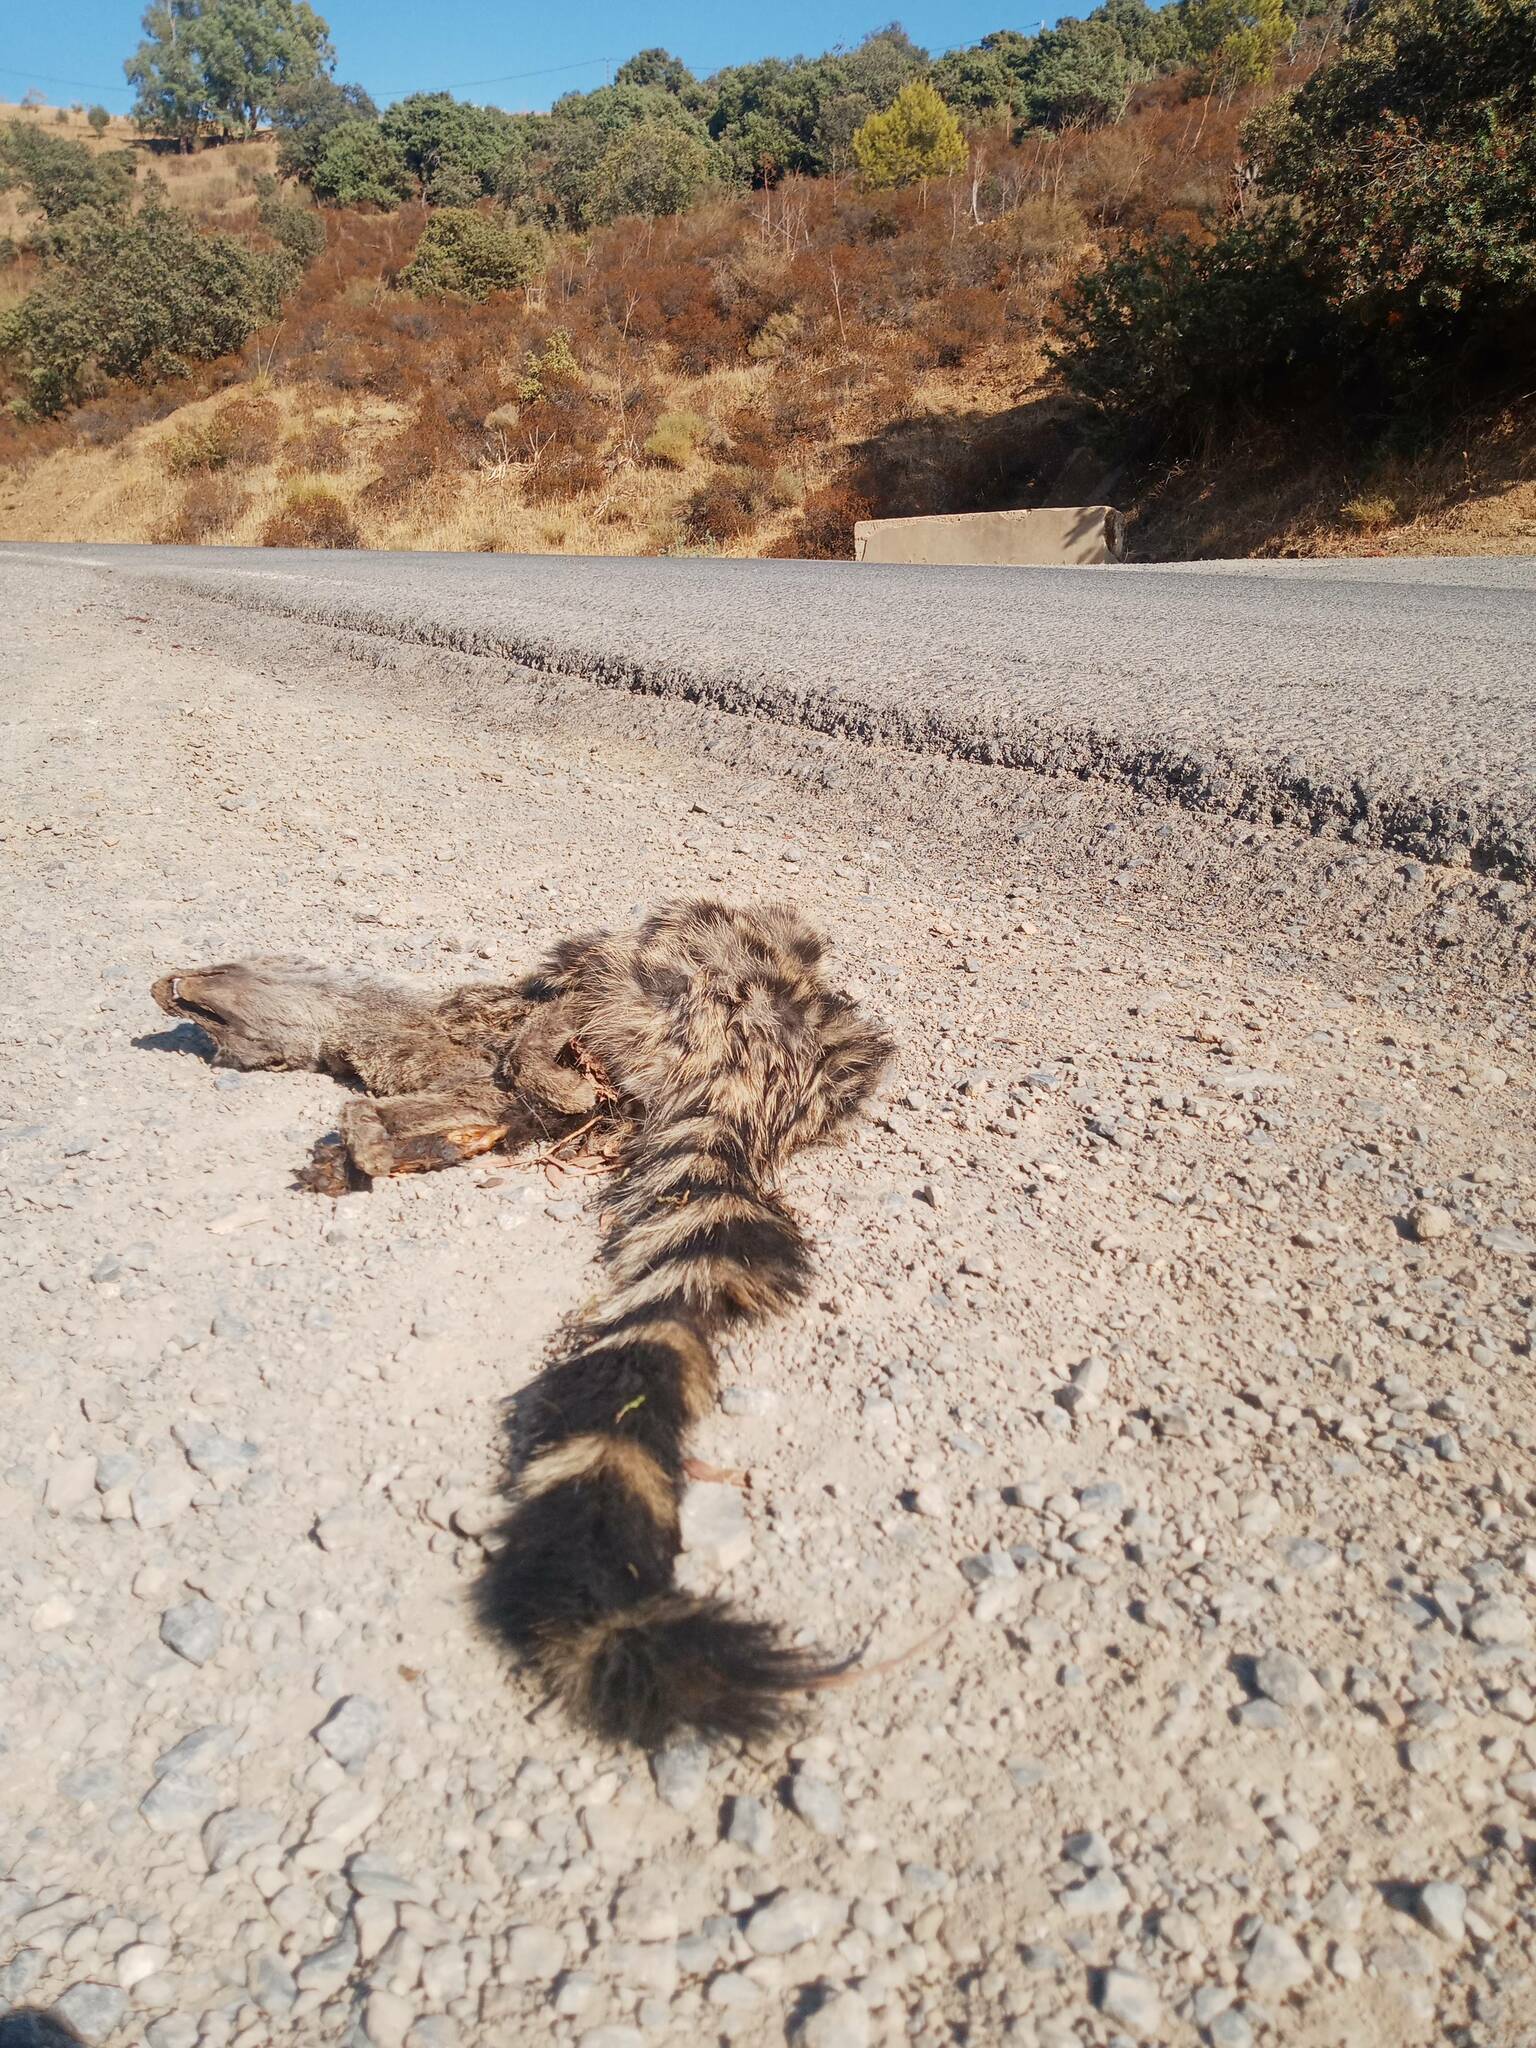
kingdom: Animalia
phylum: Chordata
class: Mammalia
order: Carnivora
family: Viverridae
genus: Genetta
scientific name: Genetta genetta
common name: Common genet
